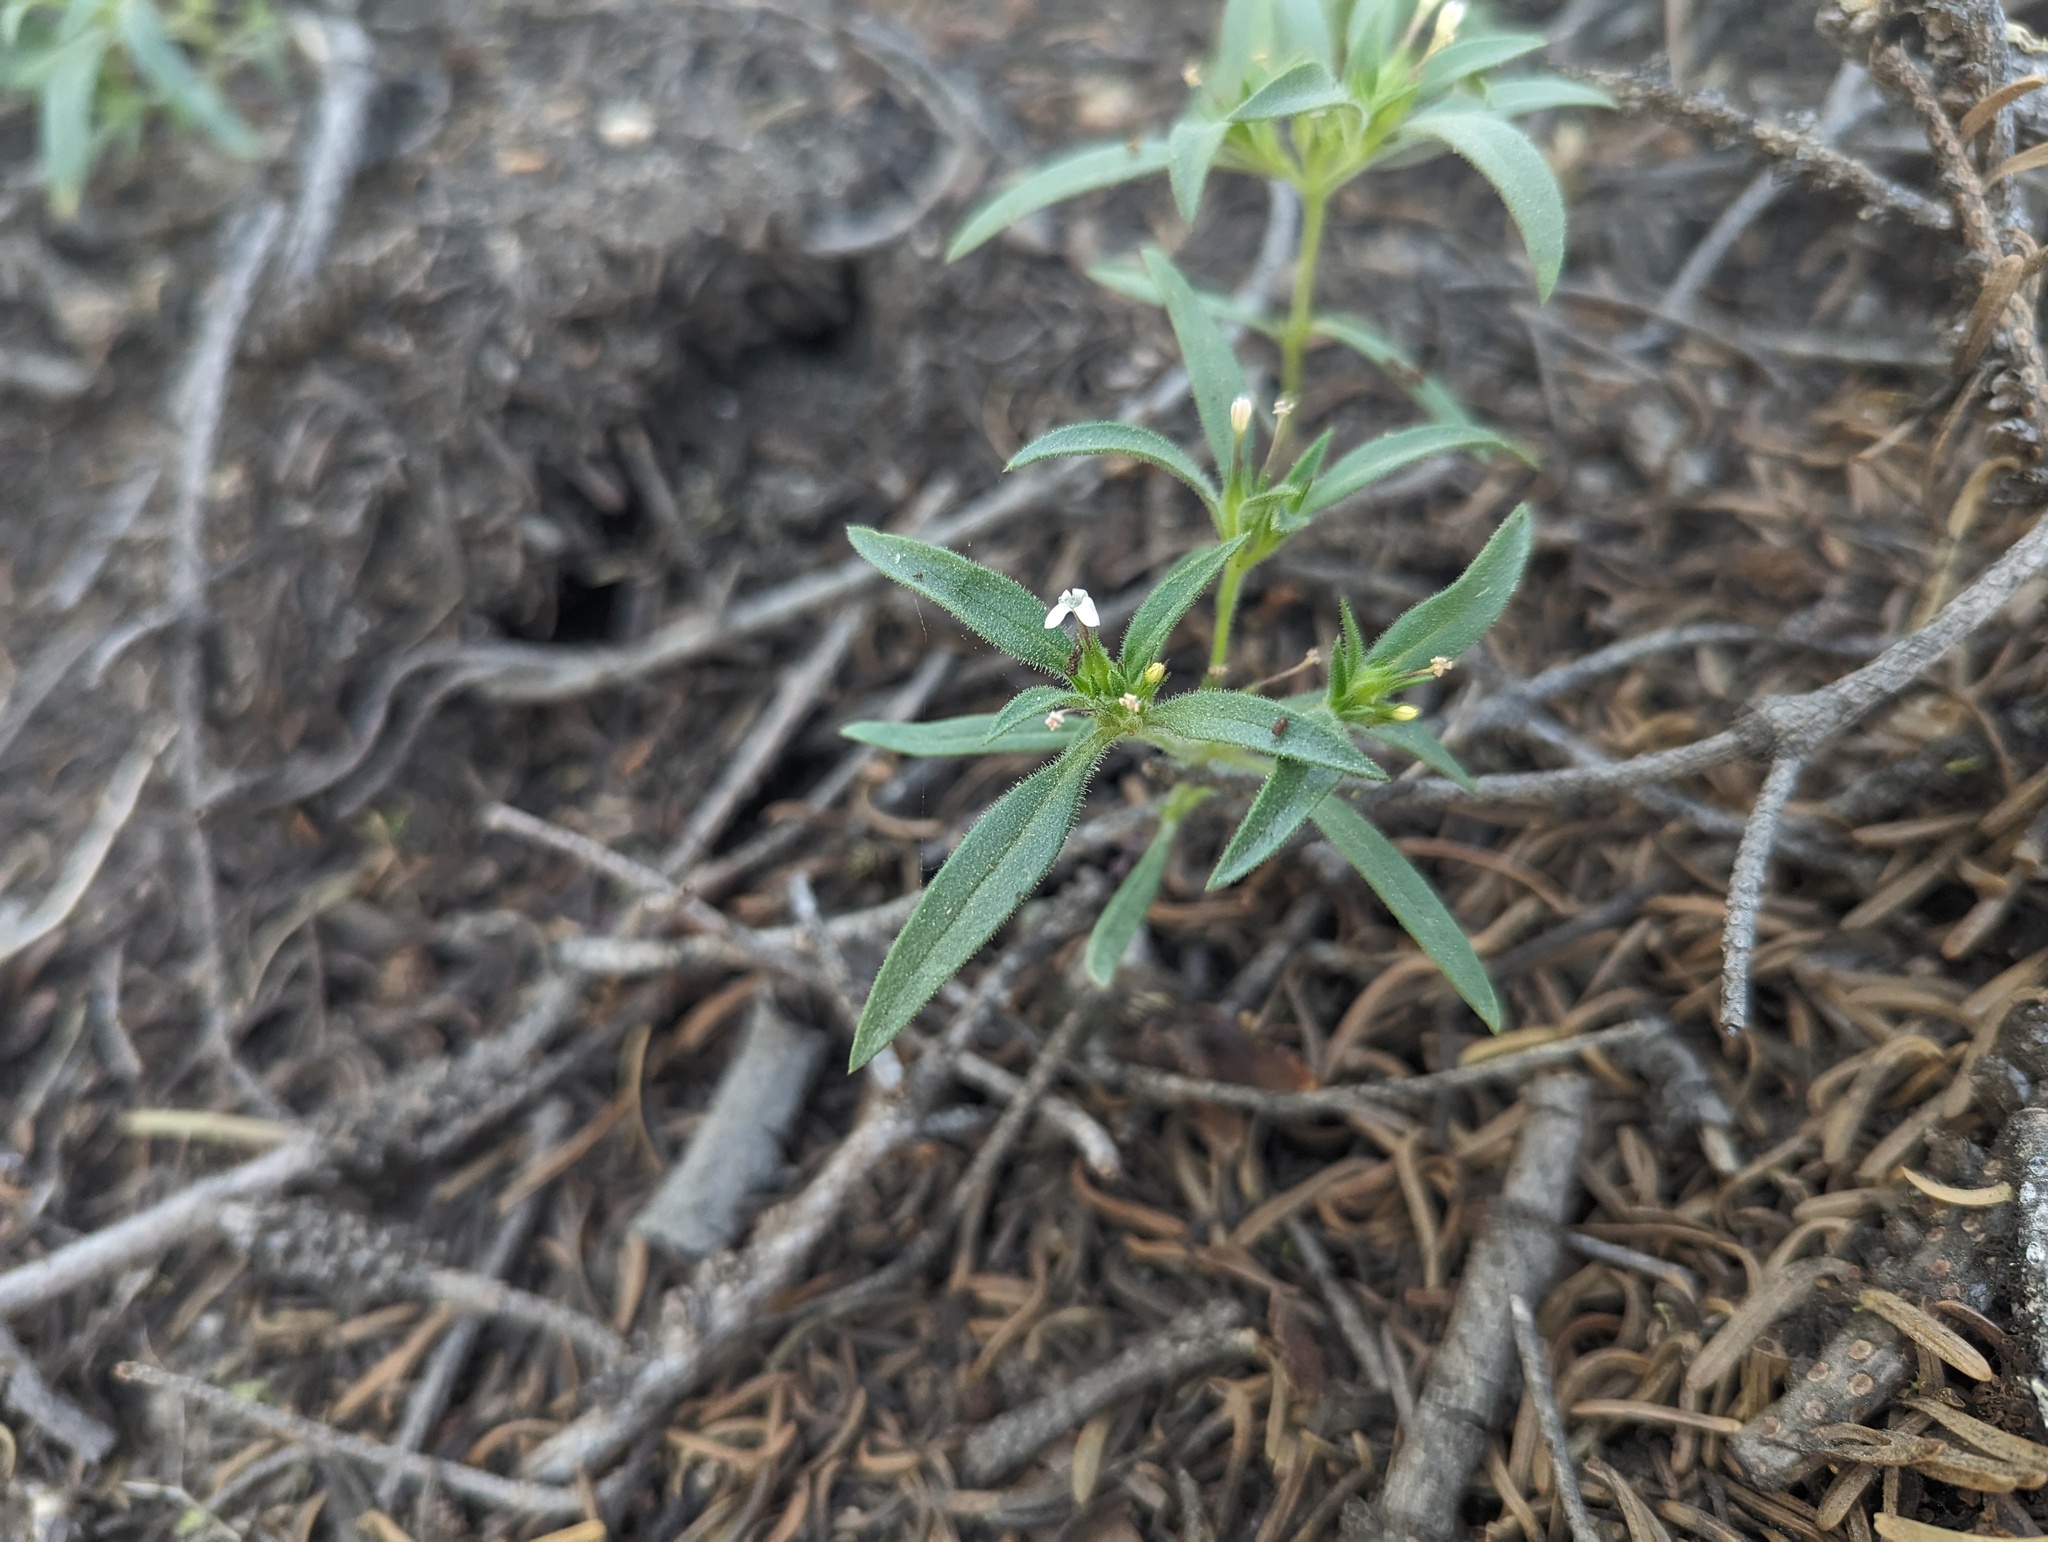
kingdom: Plantae
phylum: Tracheophyta
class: Magnoliopsida
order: Ericales
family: Polemoniaceae
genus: Collomia
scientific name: Collomia tinctoria
